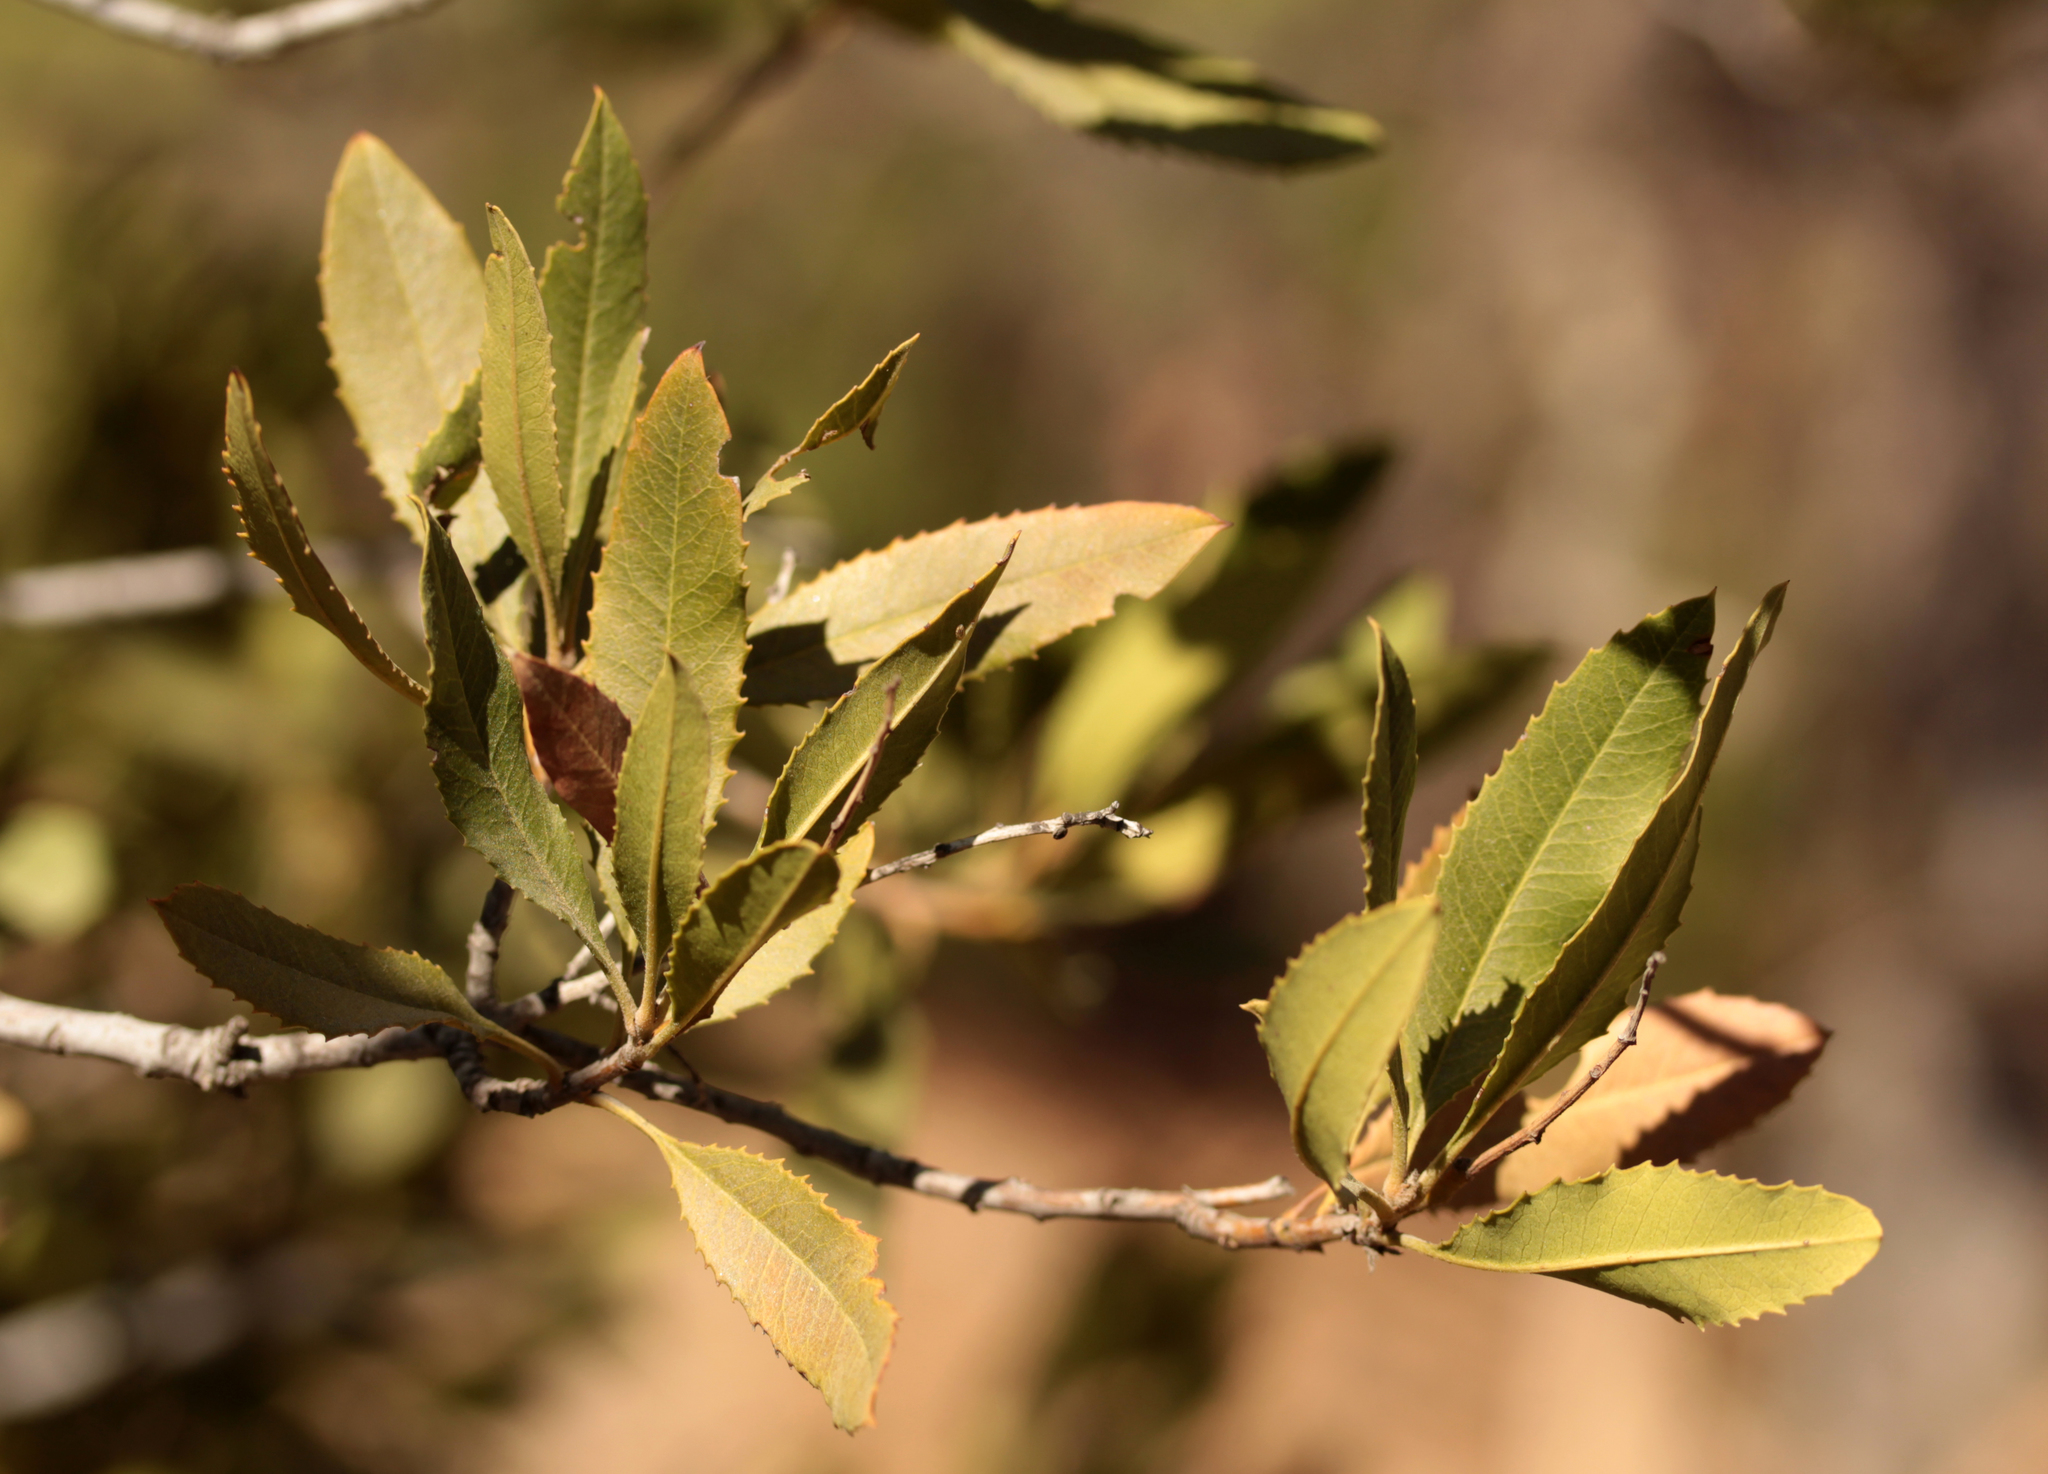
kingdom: Plantae
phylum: Tracheophyta
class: Magnoliopsida
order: Rosales
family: Rosaceae
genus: Heteromeles
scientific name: Heteromeles arbutifolia
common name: California-holly
